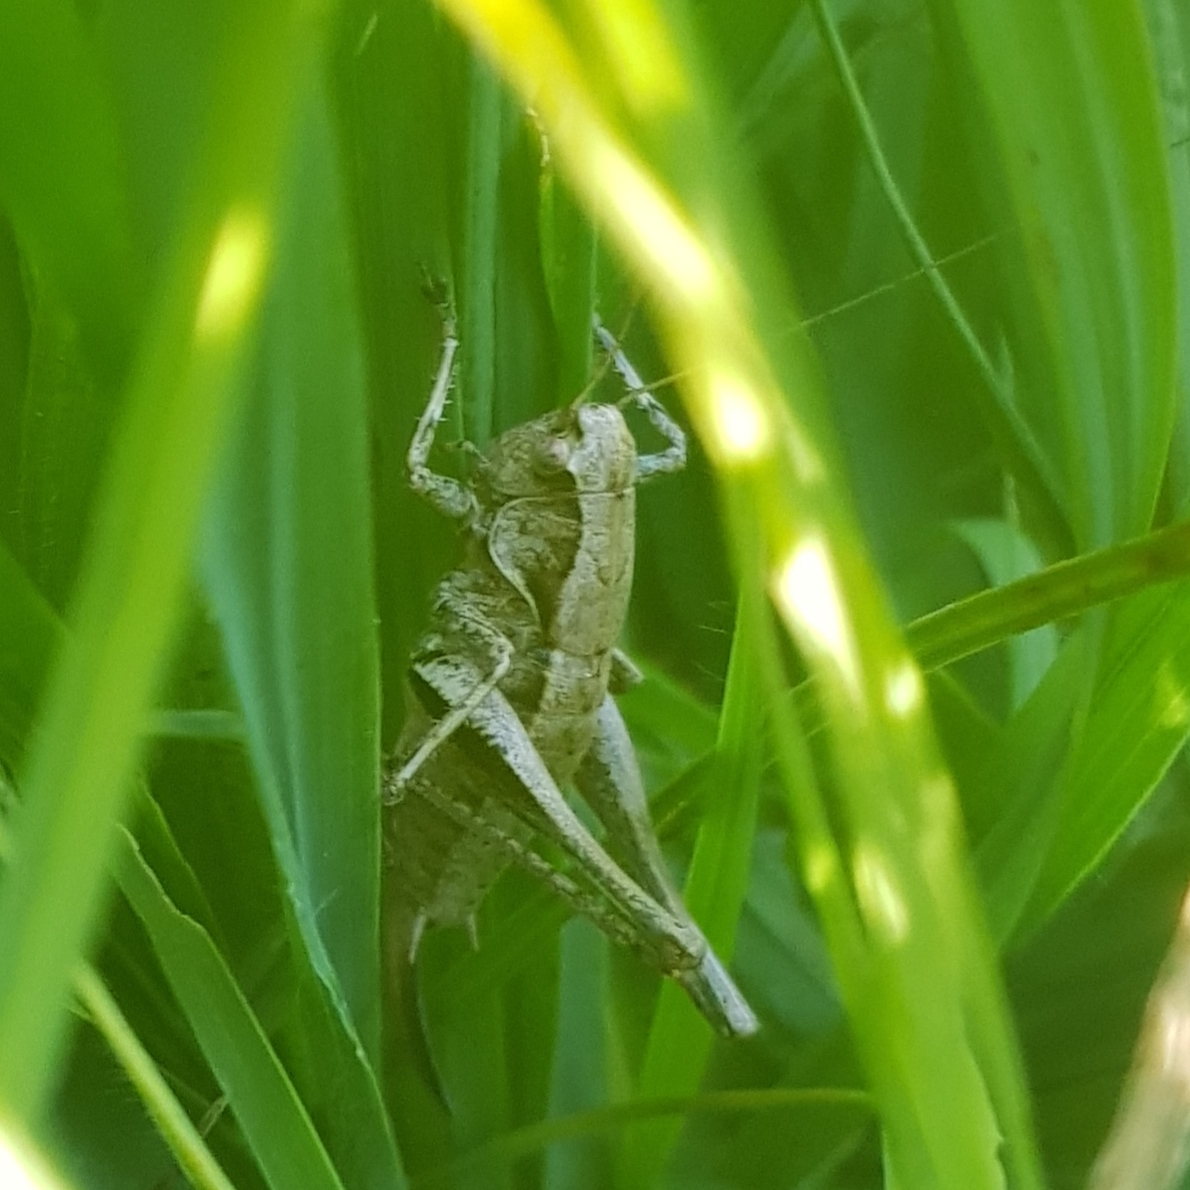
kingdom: Animalia
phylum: Arthropoda
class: Insecta
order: Orthoptera
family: Tettigoniidae
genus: Pholidoptera
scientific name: Pholidoptera griseoaptera
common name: Dark bush-cricket
